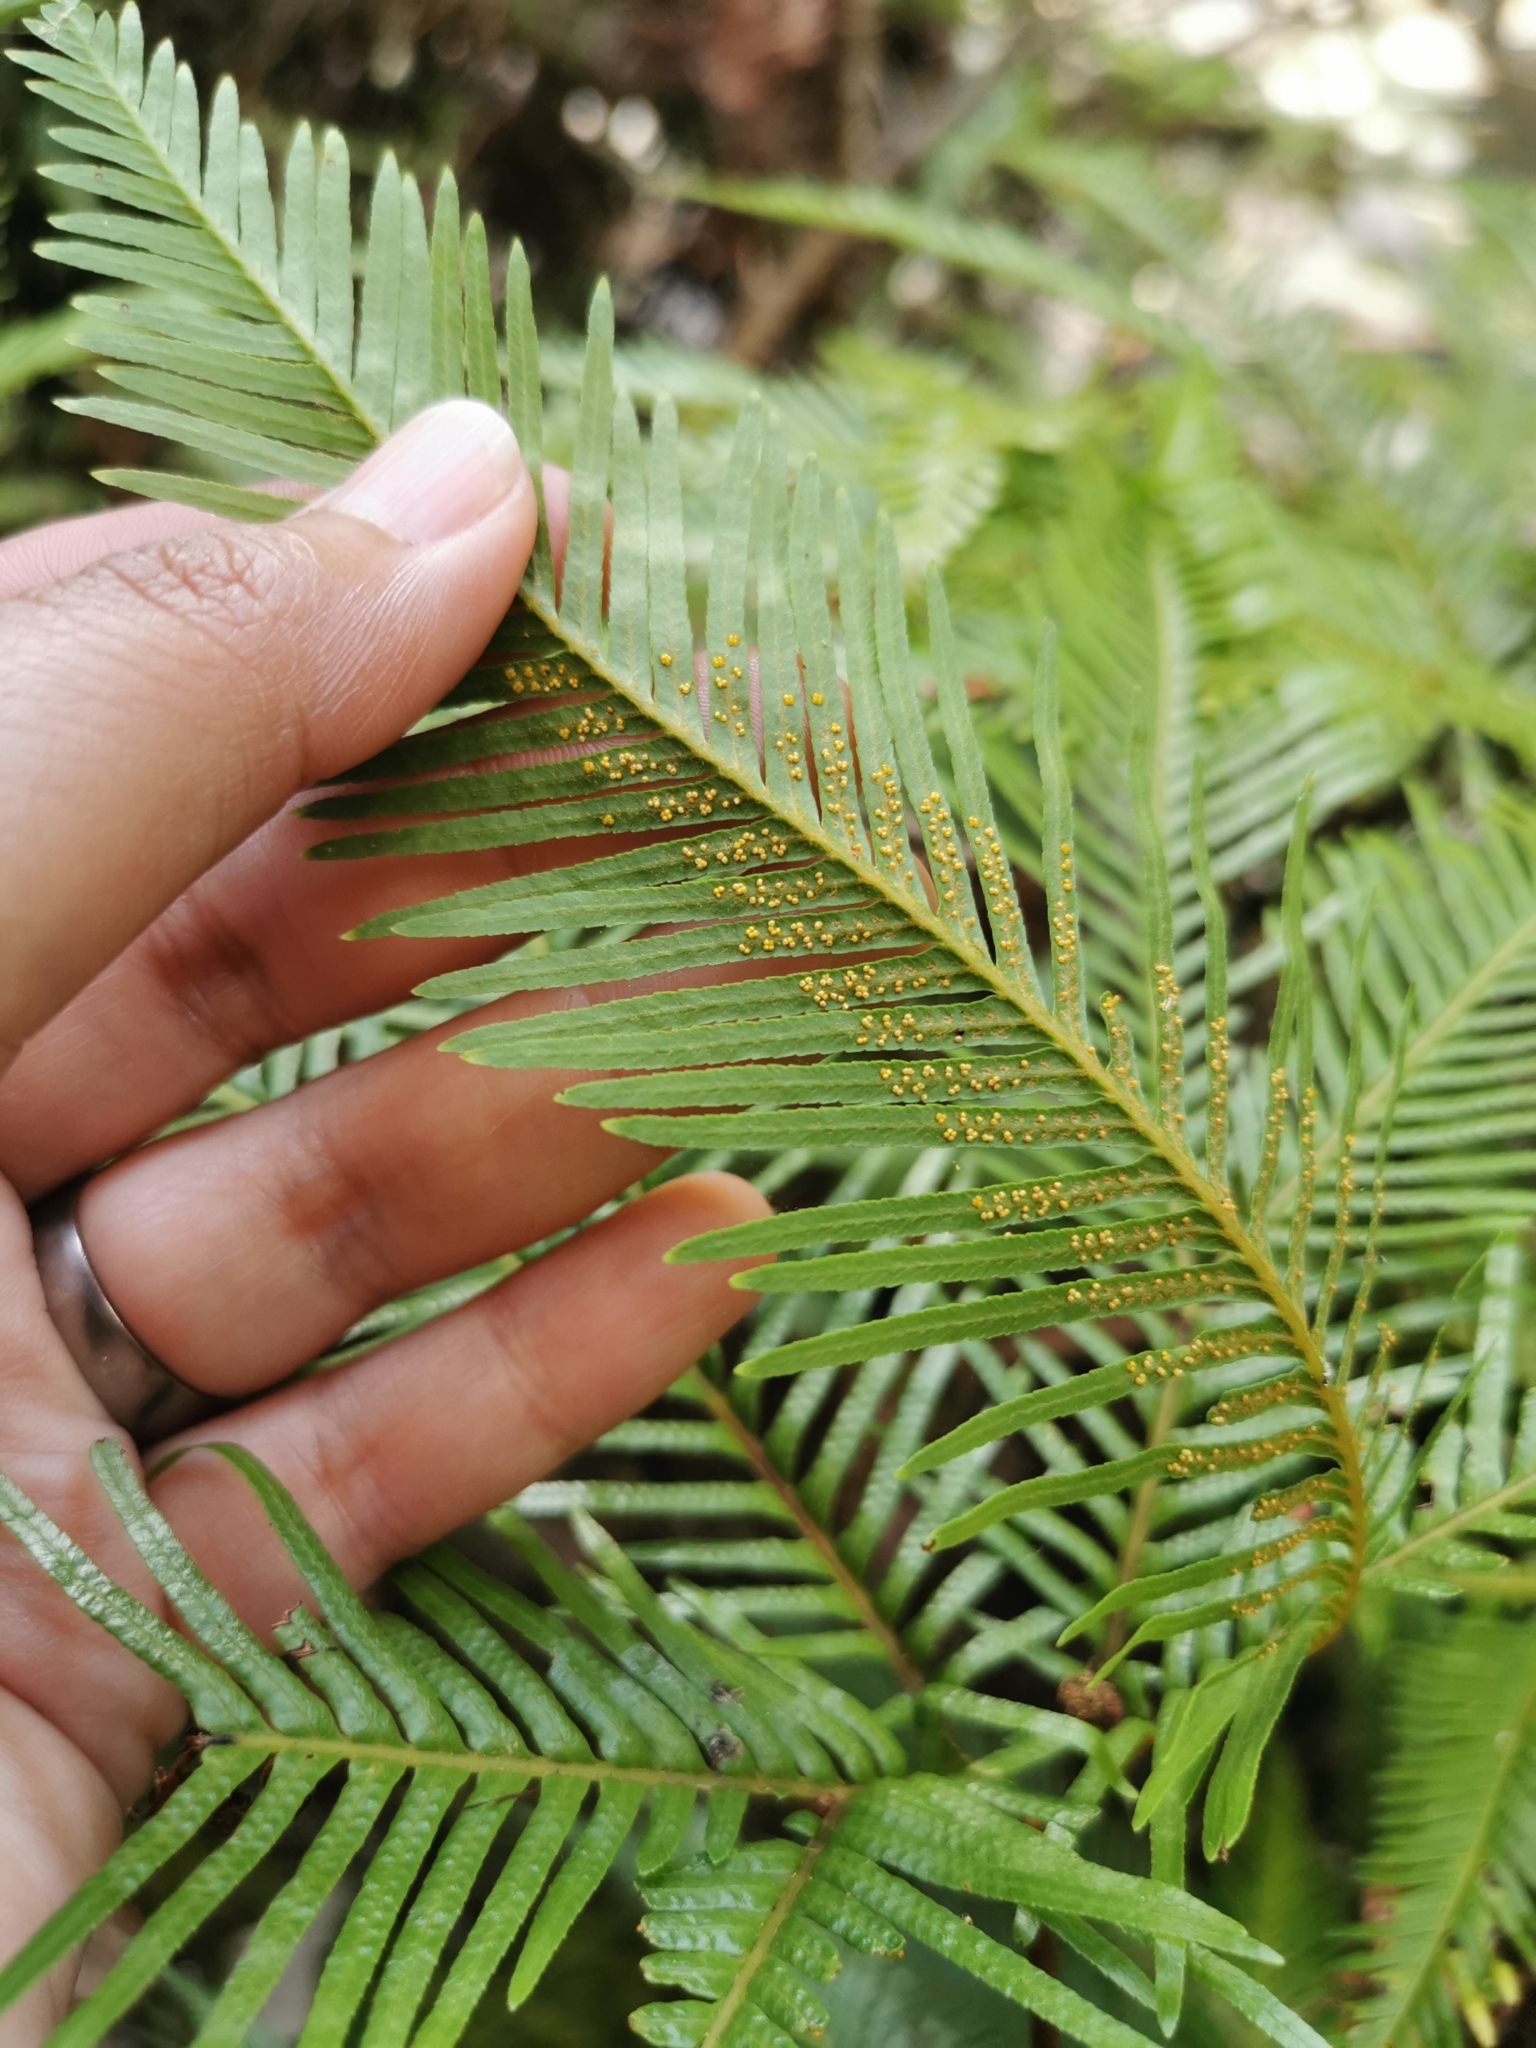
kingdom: Plantae
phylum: Tracheophyta
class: Polypodiopsida
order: Gleicheniales
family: Gleicheniaceae
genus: Sticherus
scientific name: Sticherus flabellatus
